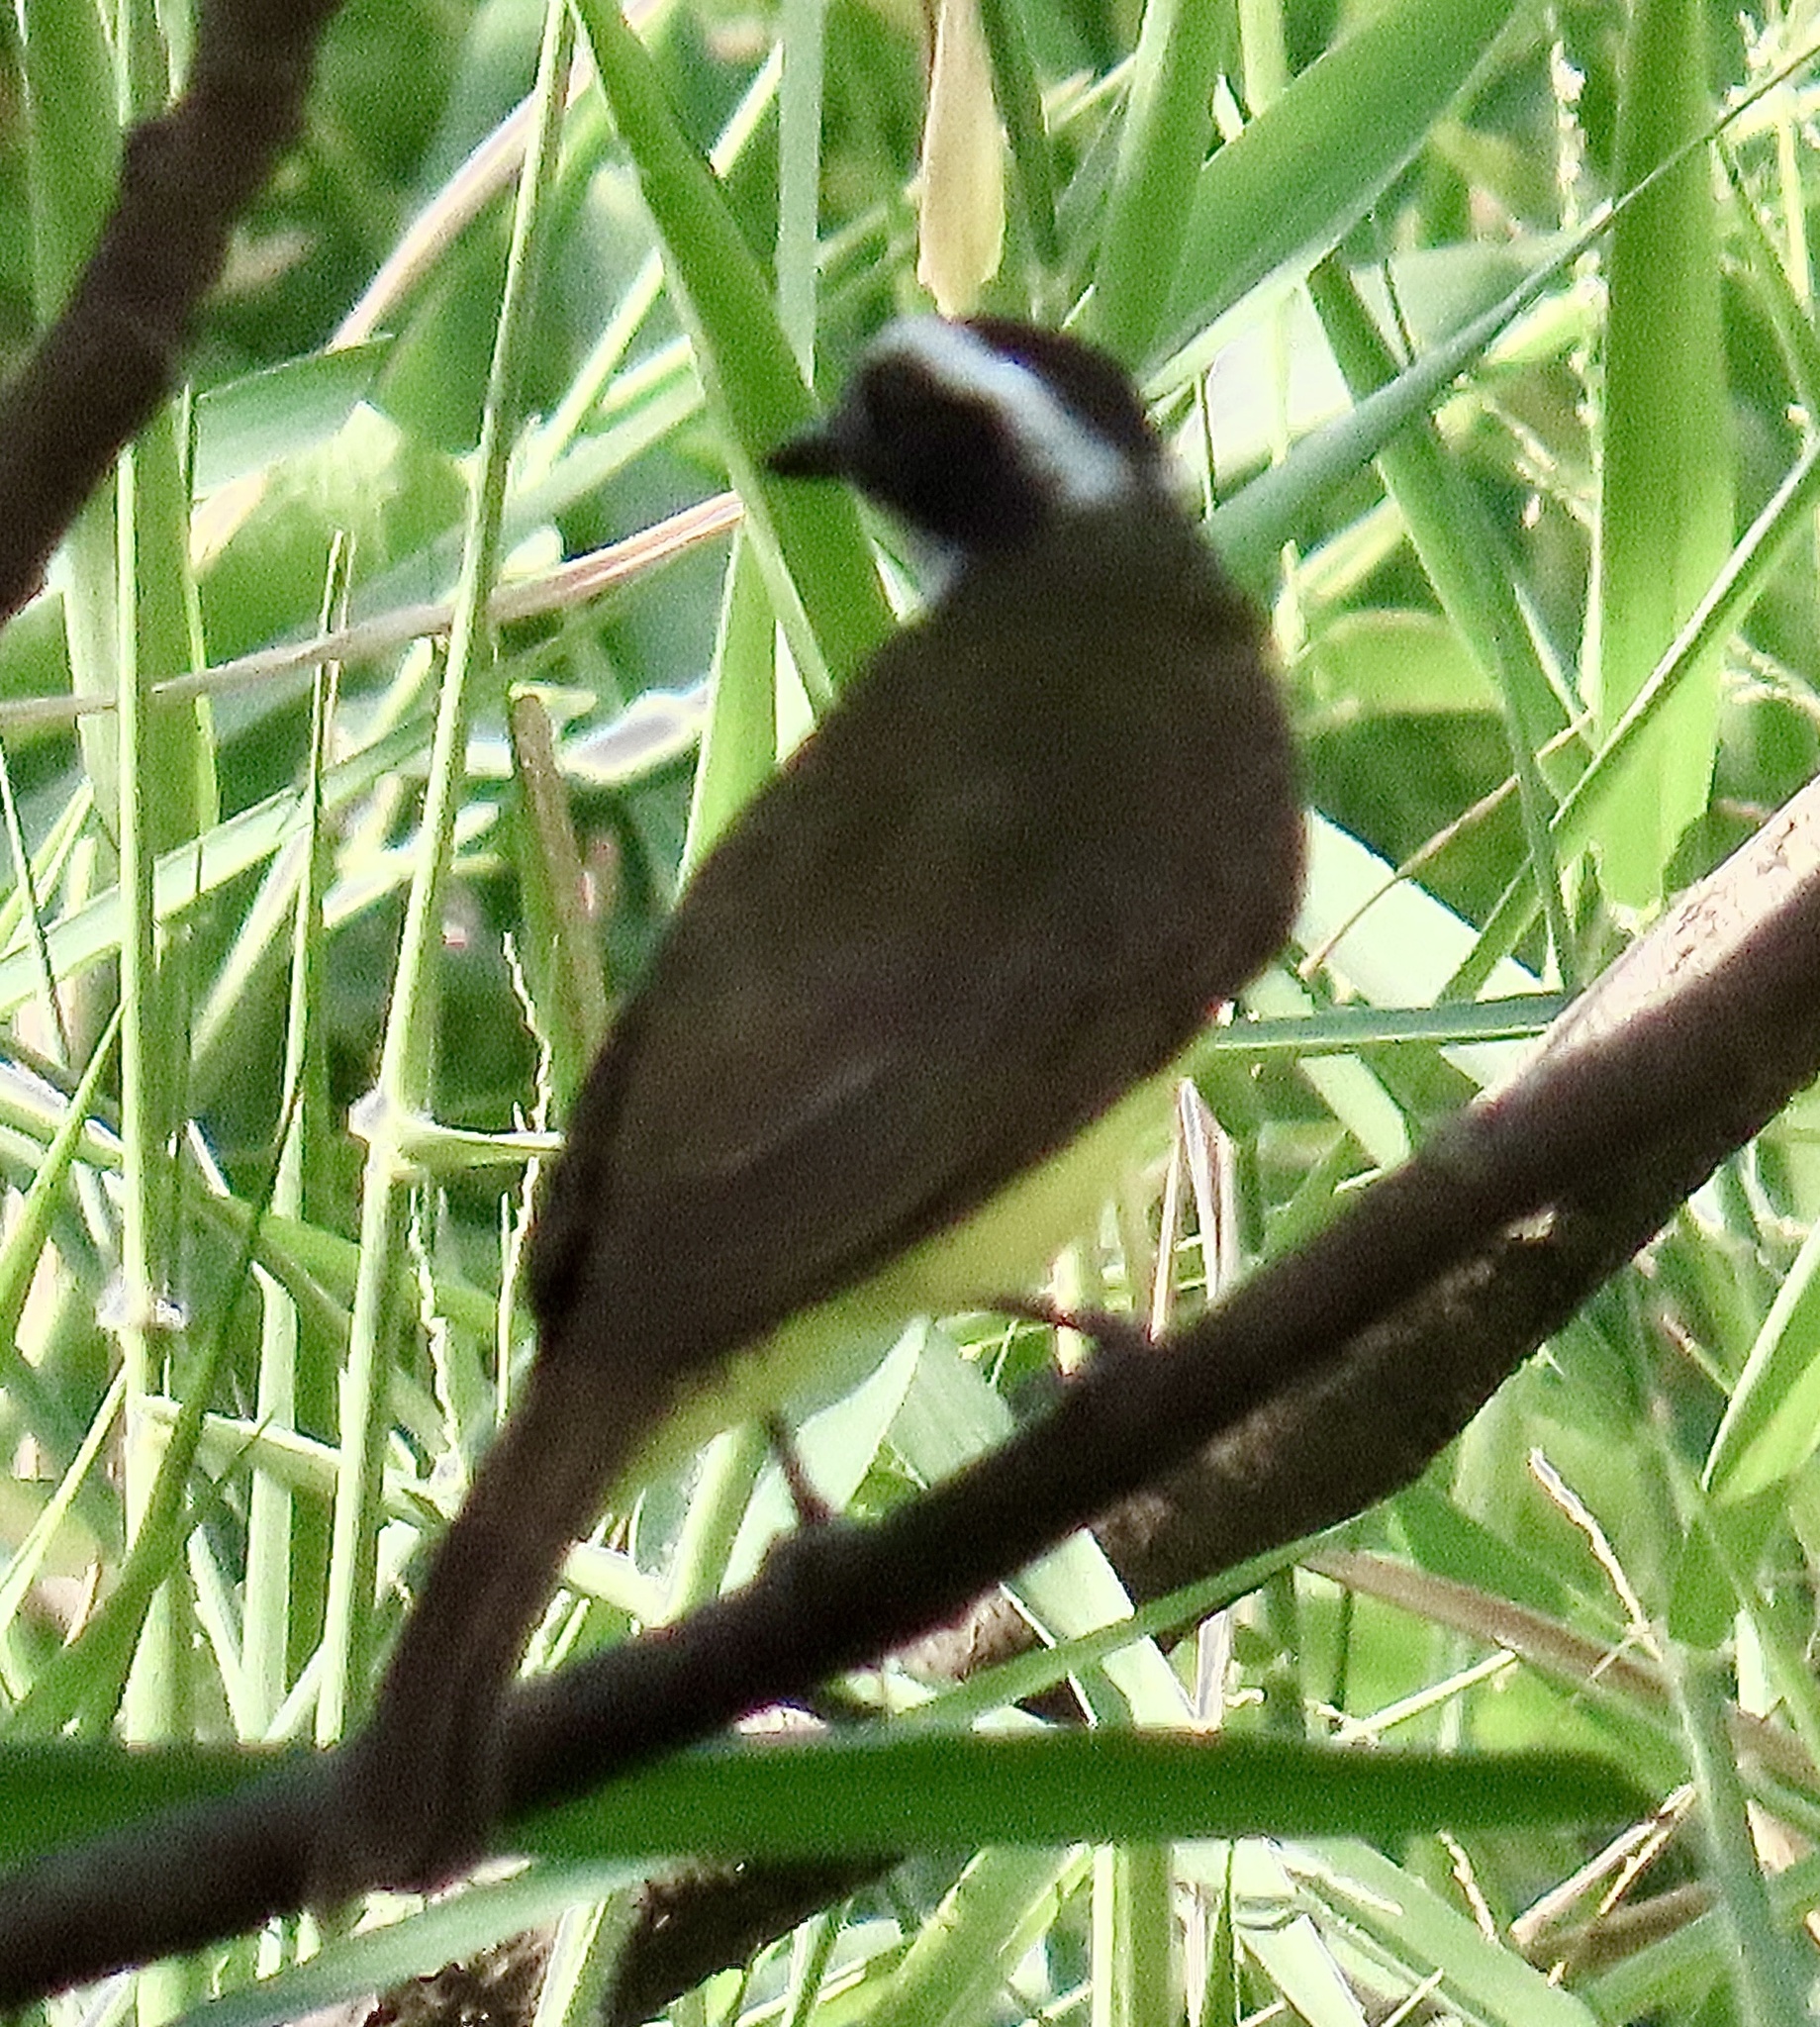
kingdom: Animalia
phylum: Chordata
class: Aves
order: Passeriformes
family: Tyrannidae
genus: Myiozetetes
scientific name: Myiozetetes cayanensis
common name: Rusty-margined flycatcher
